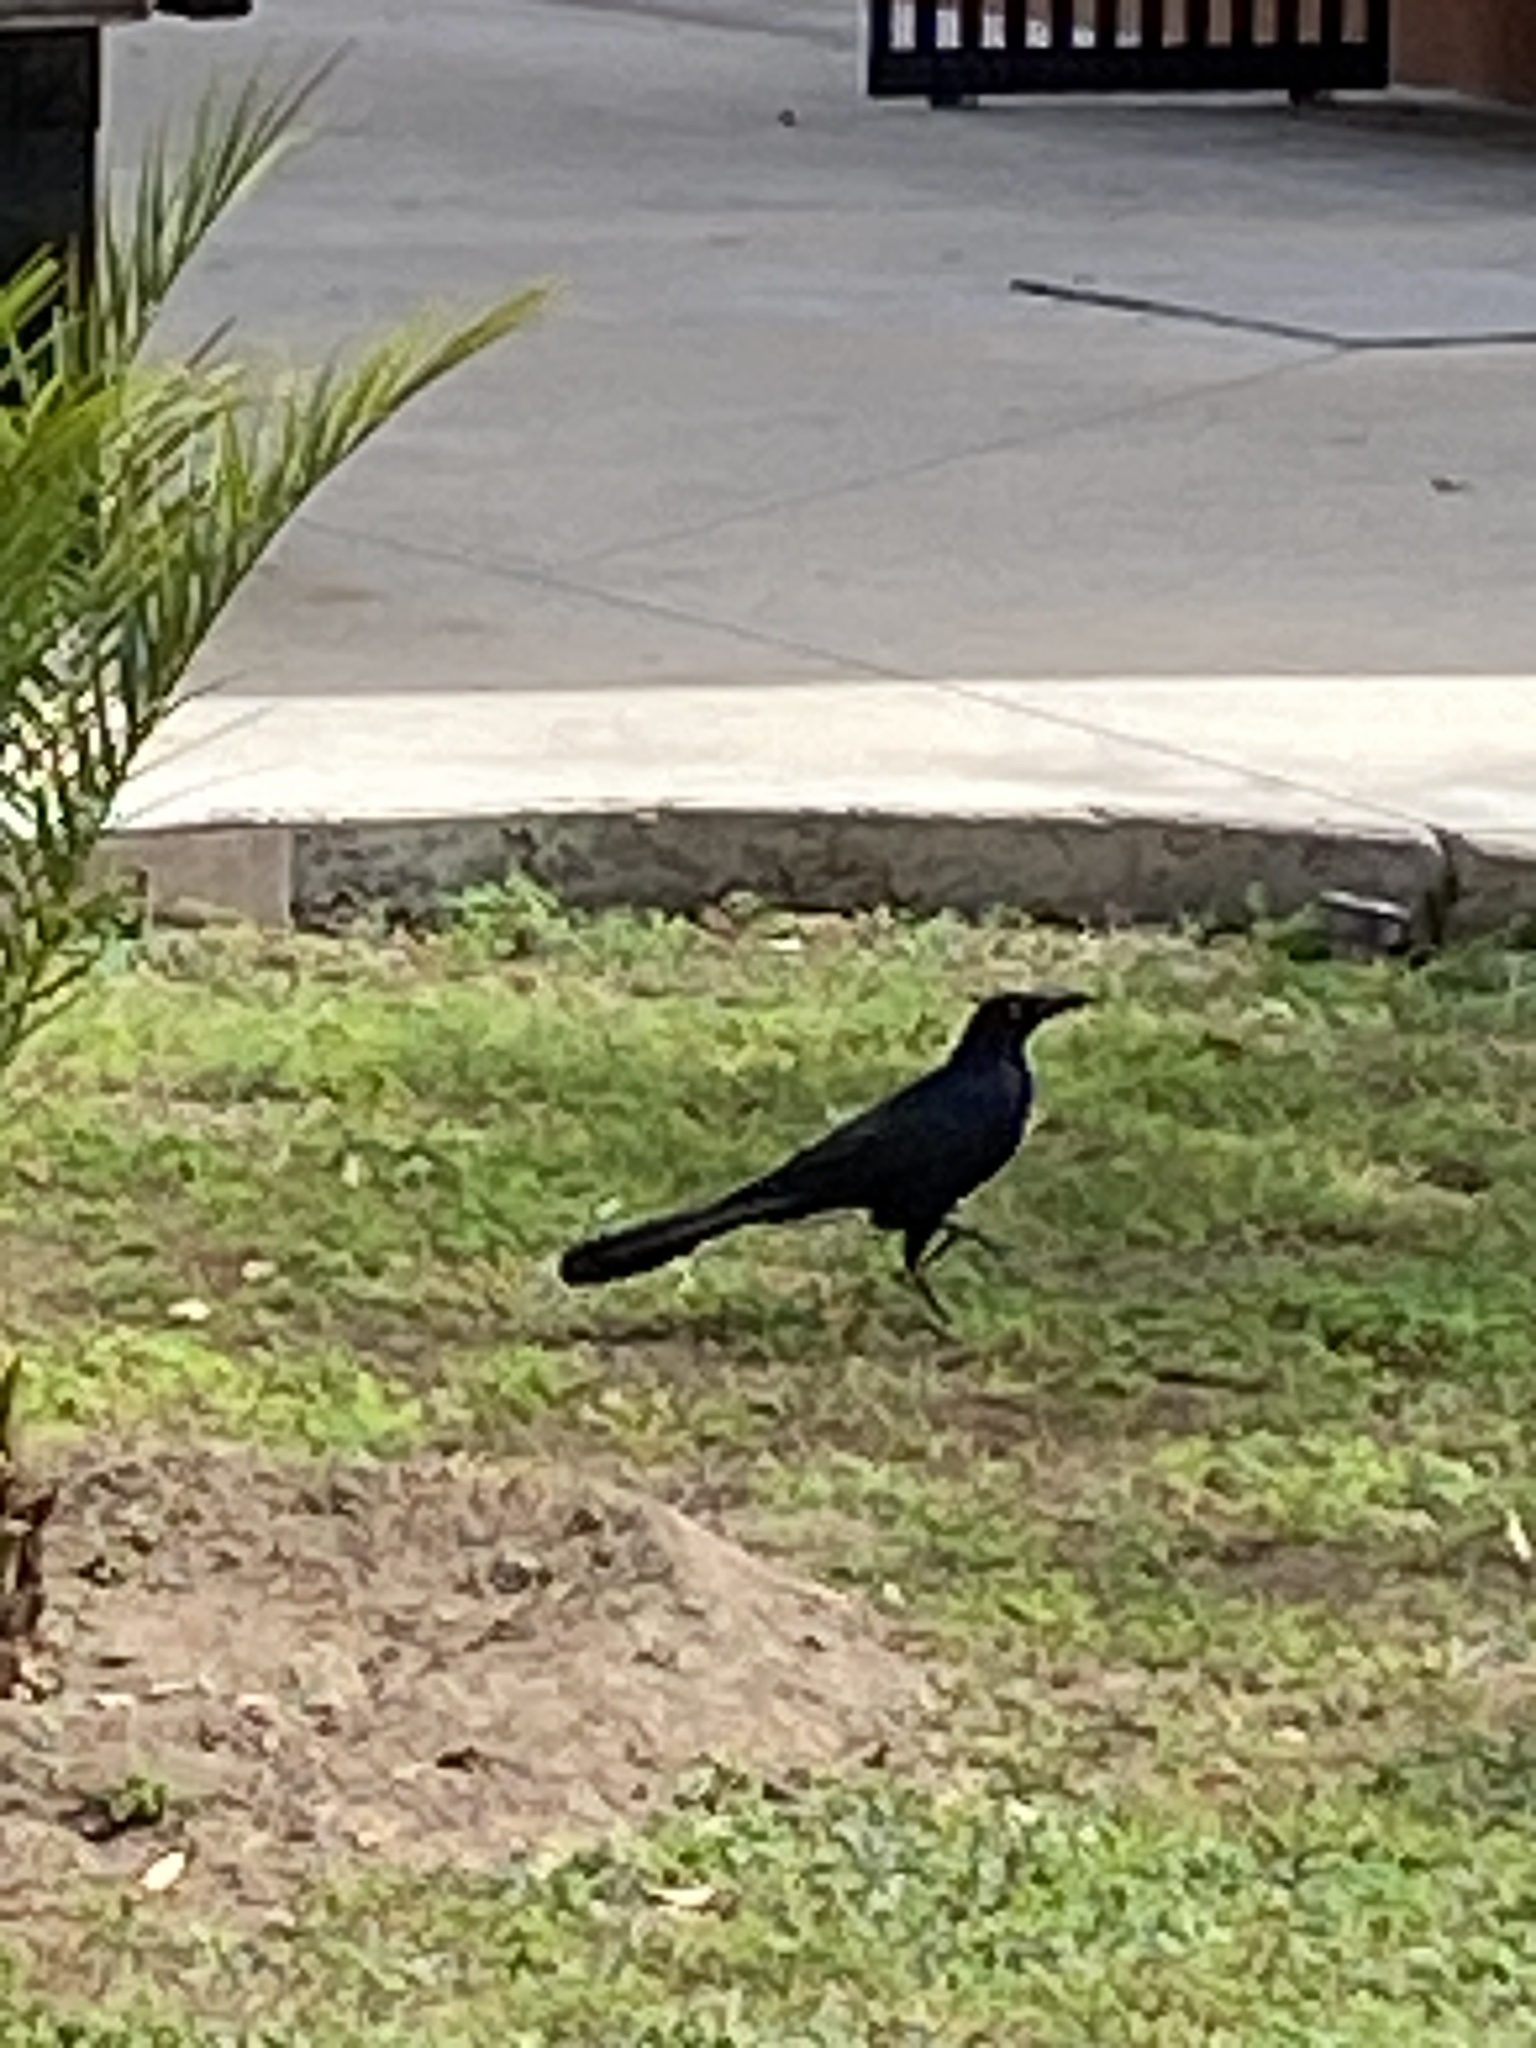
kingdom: Animalia
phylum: Chordata
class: Aves
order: Passeriformes
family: Icteridae
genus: Quiscalus
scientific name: Quiscalus mexicanus
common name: Great-tailed grackle
